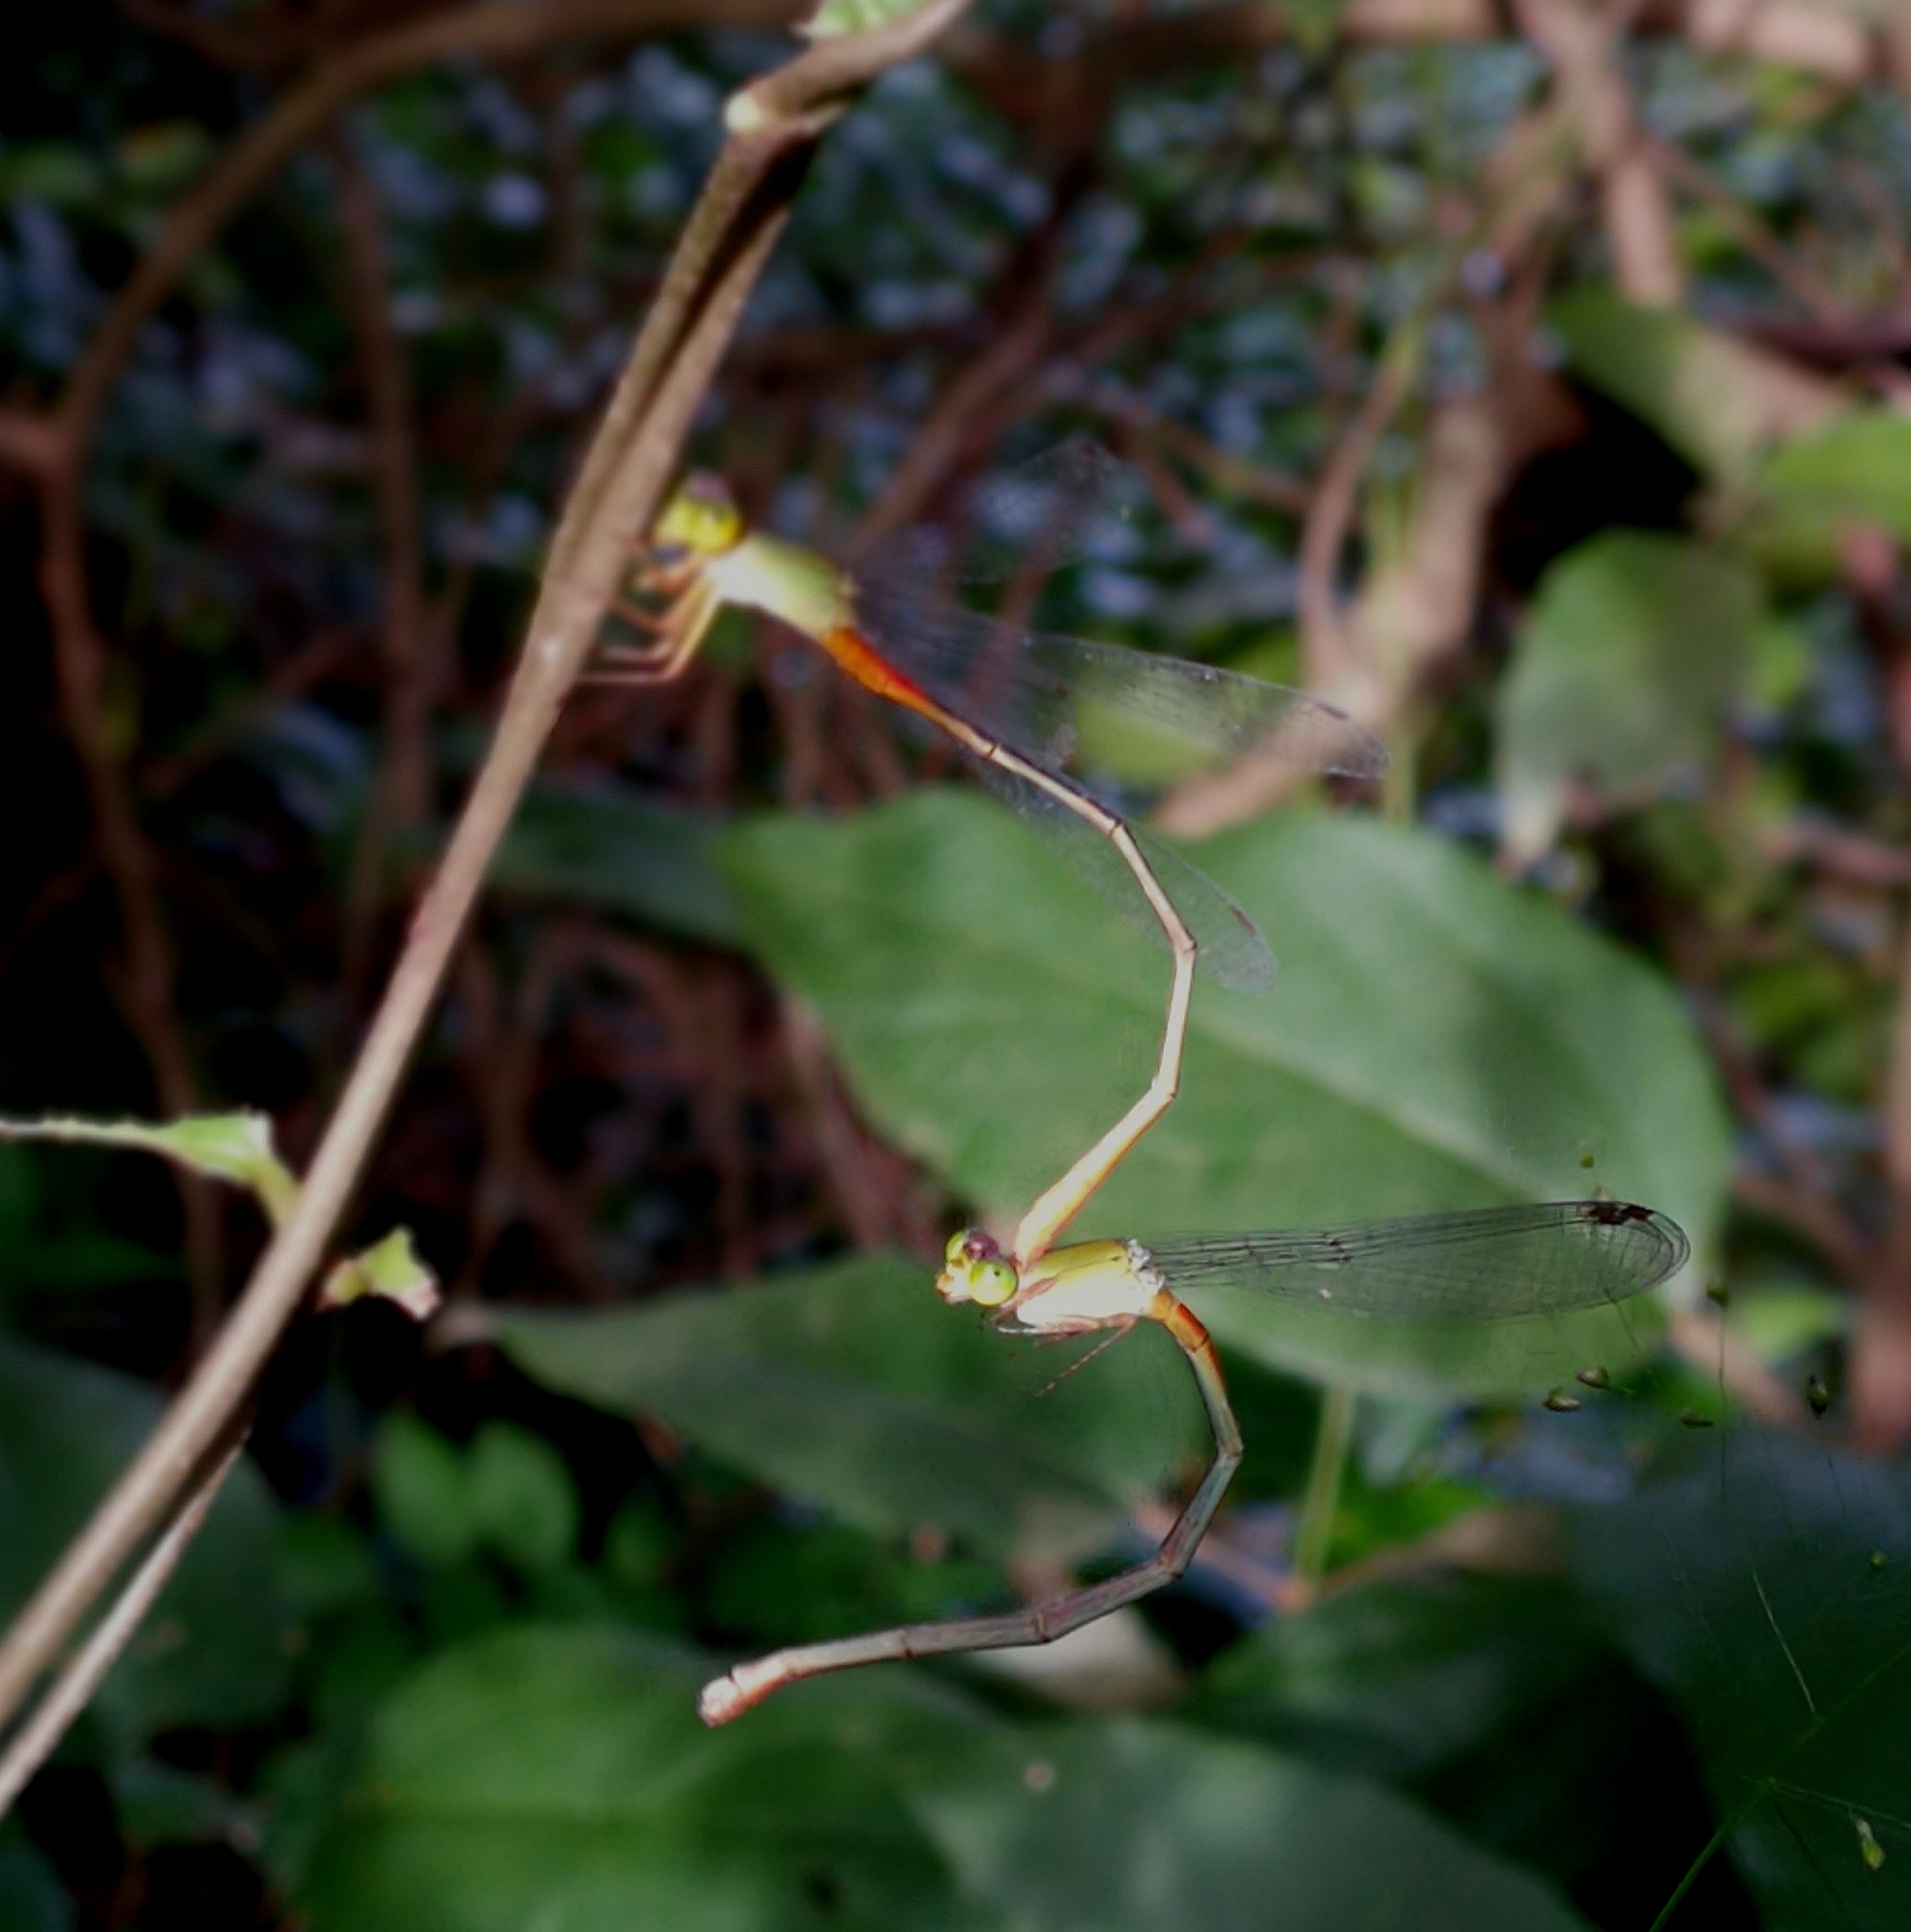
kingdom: Animalia
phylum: Arthropoda
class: Insecta
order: Odonata
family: Coenagrionidae
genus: Ceriagrion
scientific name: Ceriagrion cerinorubellum
